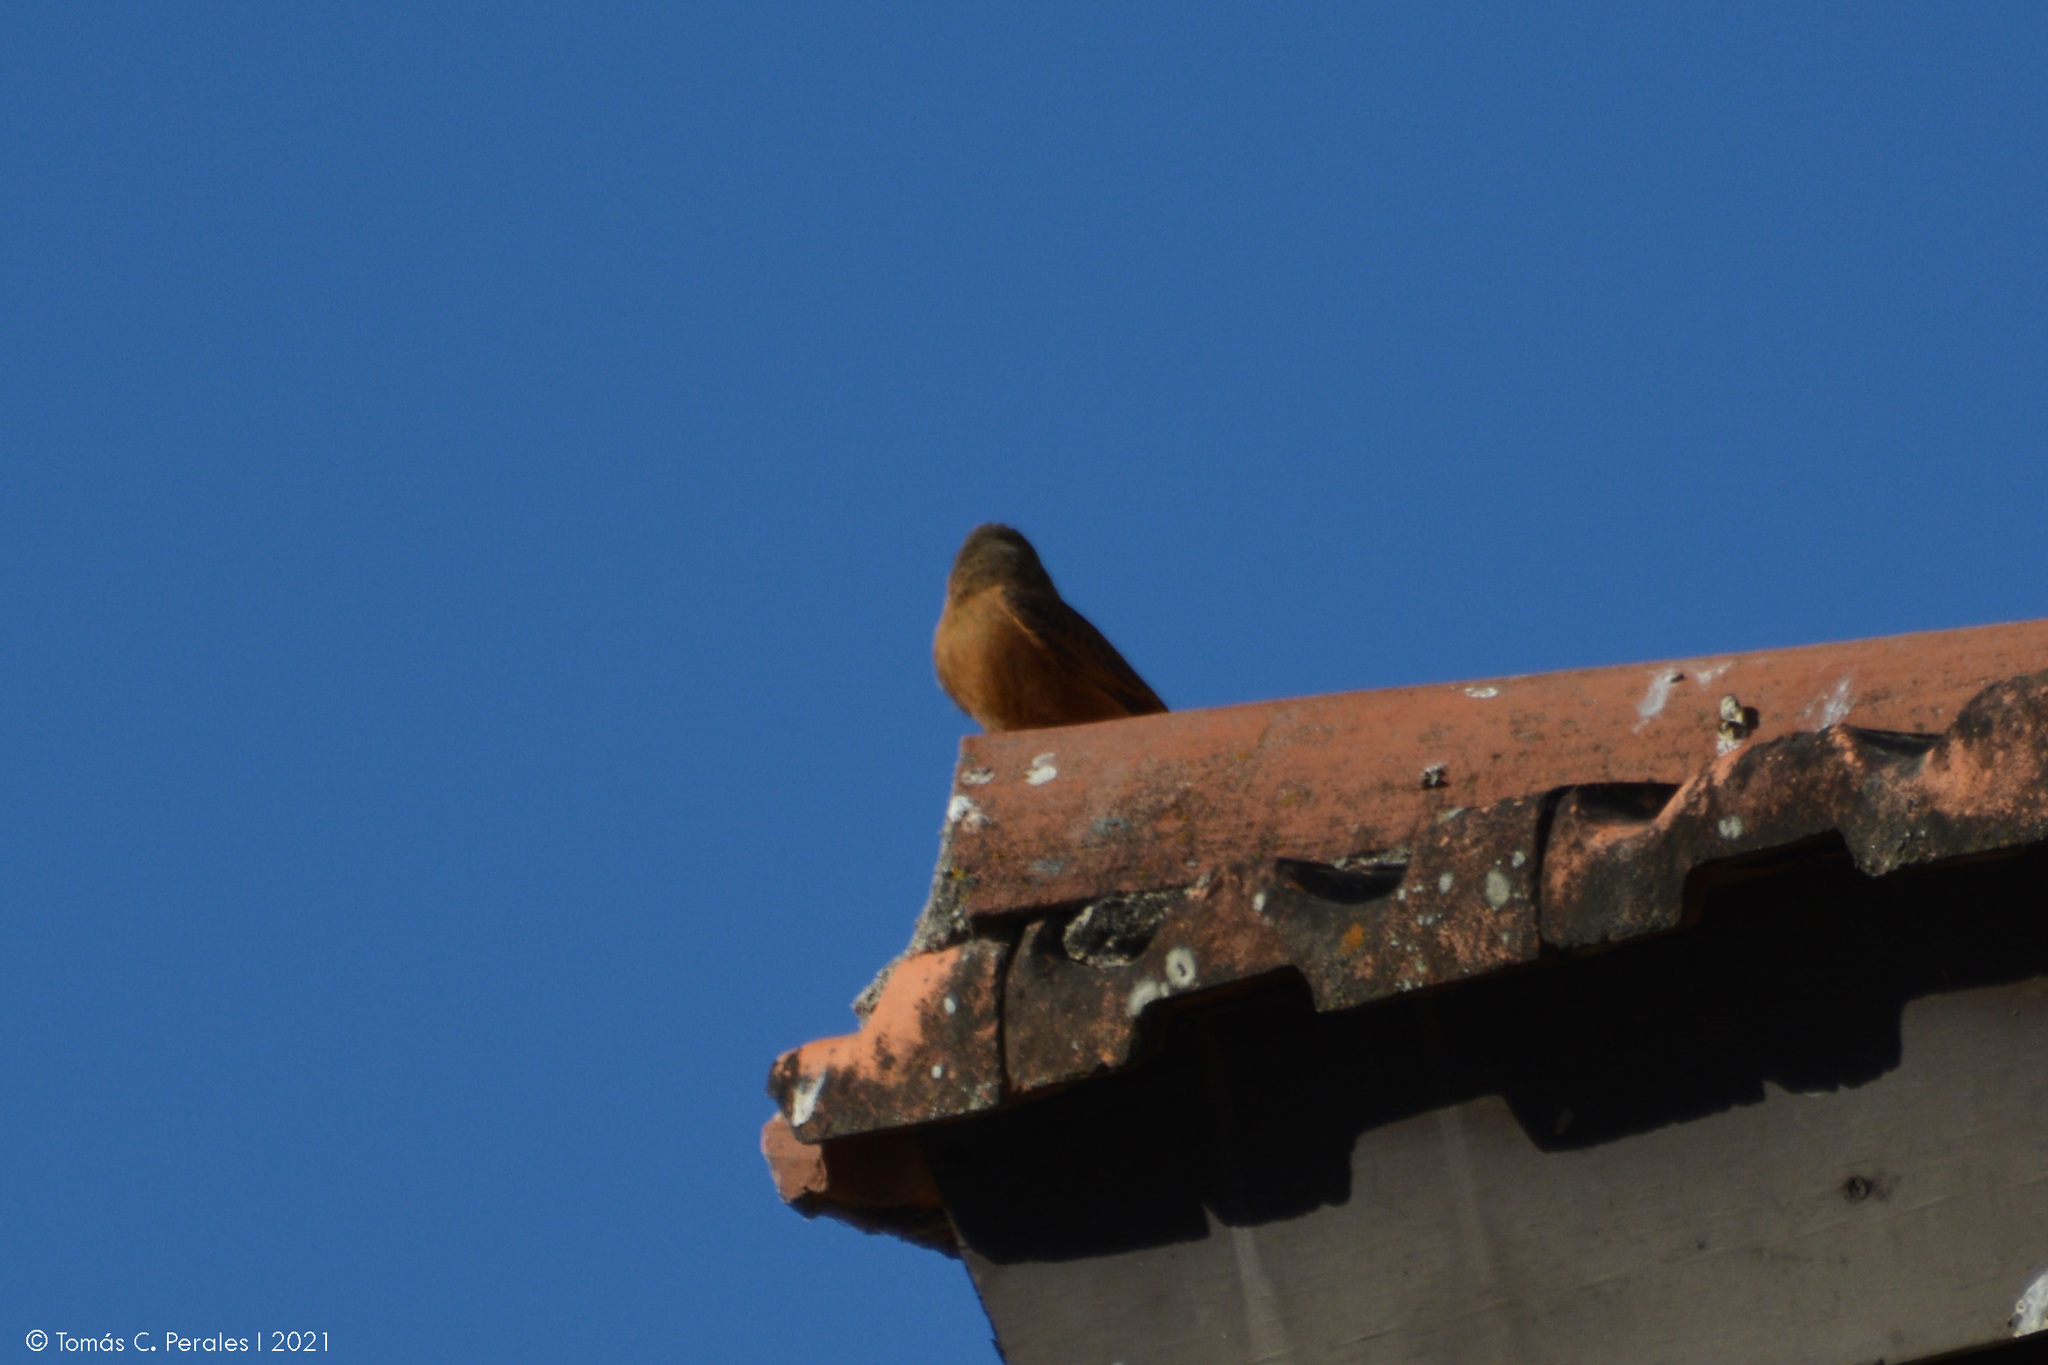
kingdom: Animalia
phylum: Chordata
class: Aves
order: Passeriformes
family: Tyrannidae
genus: Hirundinea
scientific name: Hirundinea ferruginea
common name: Cliff flycatcher
